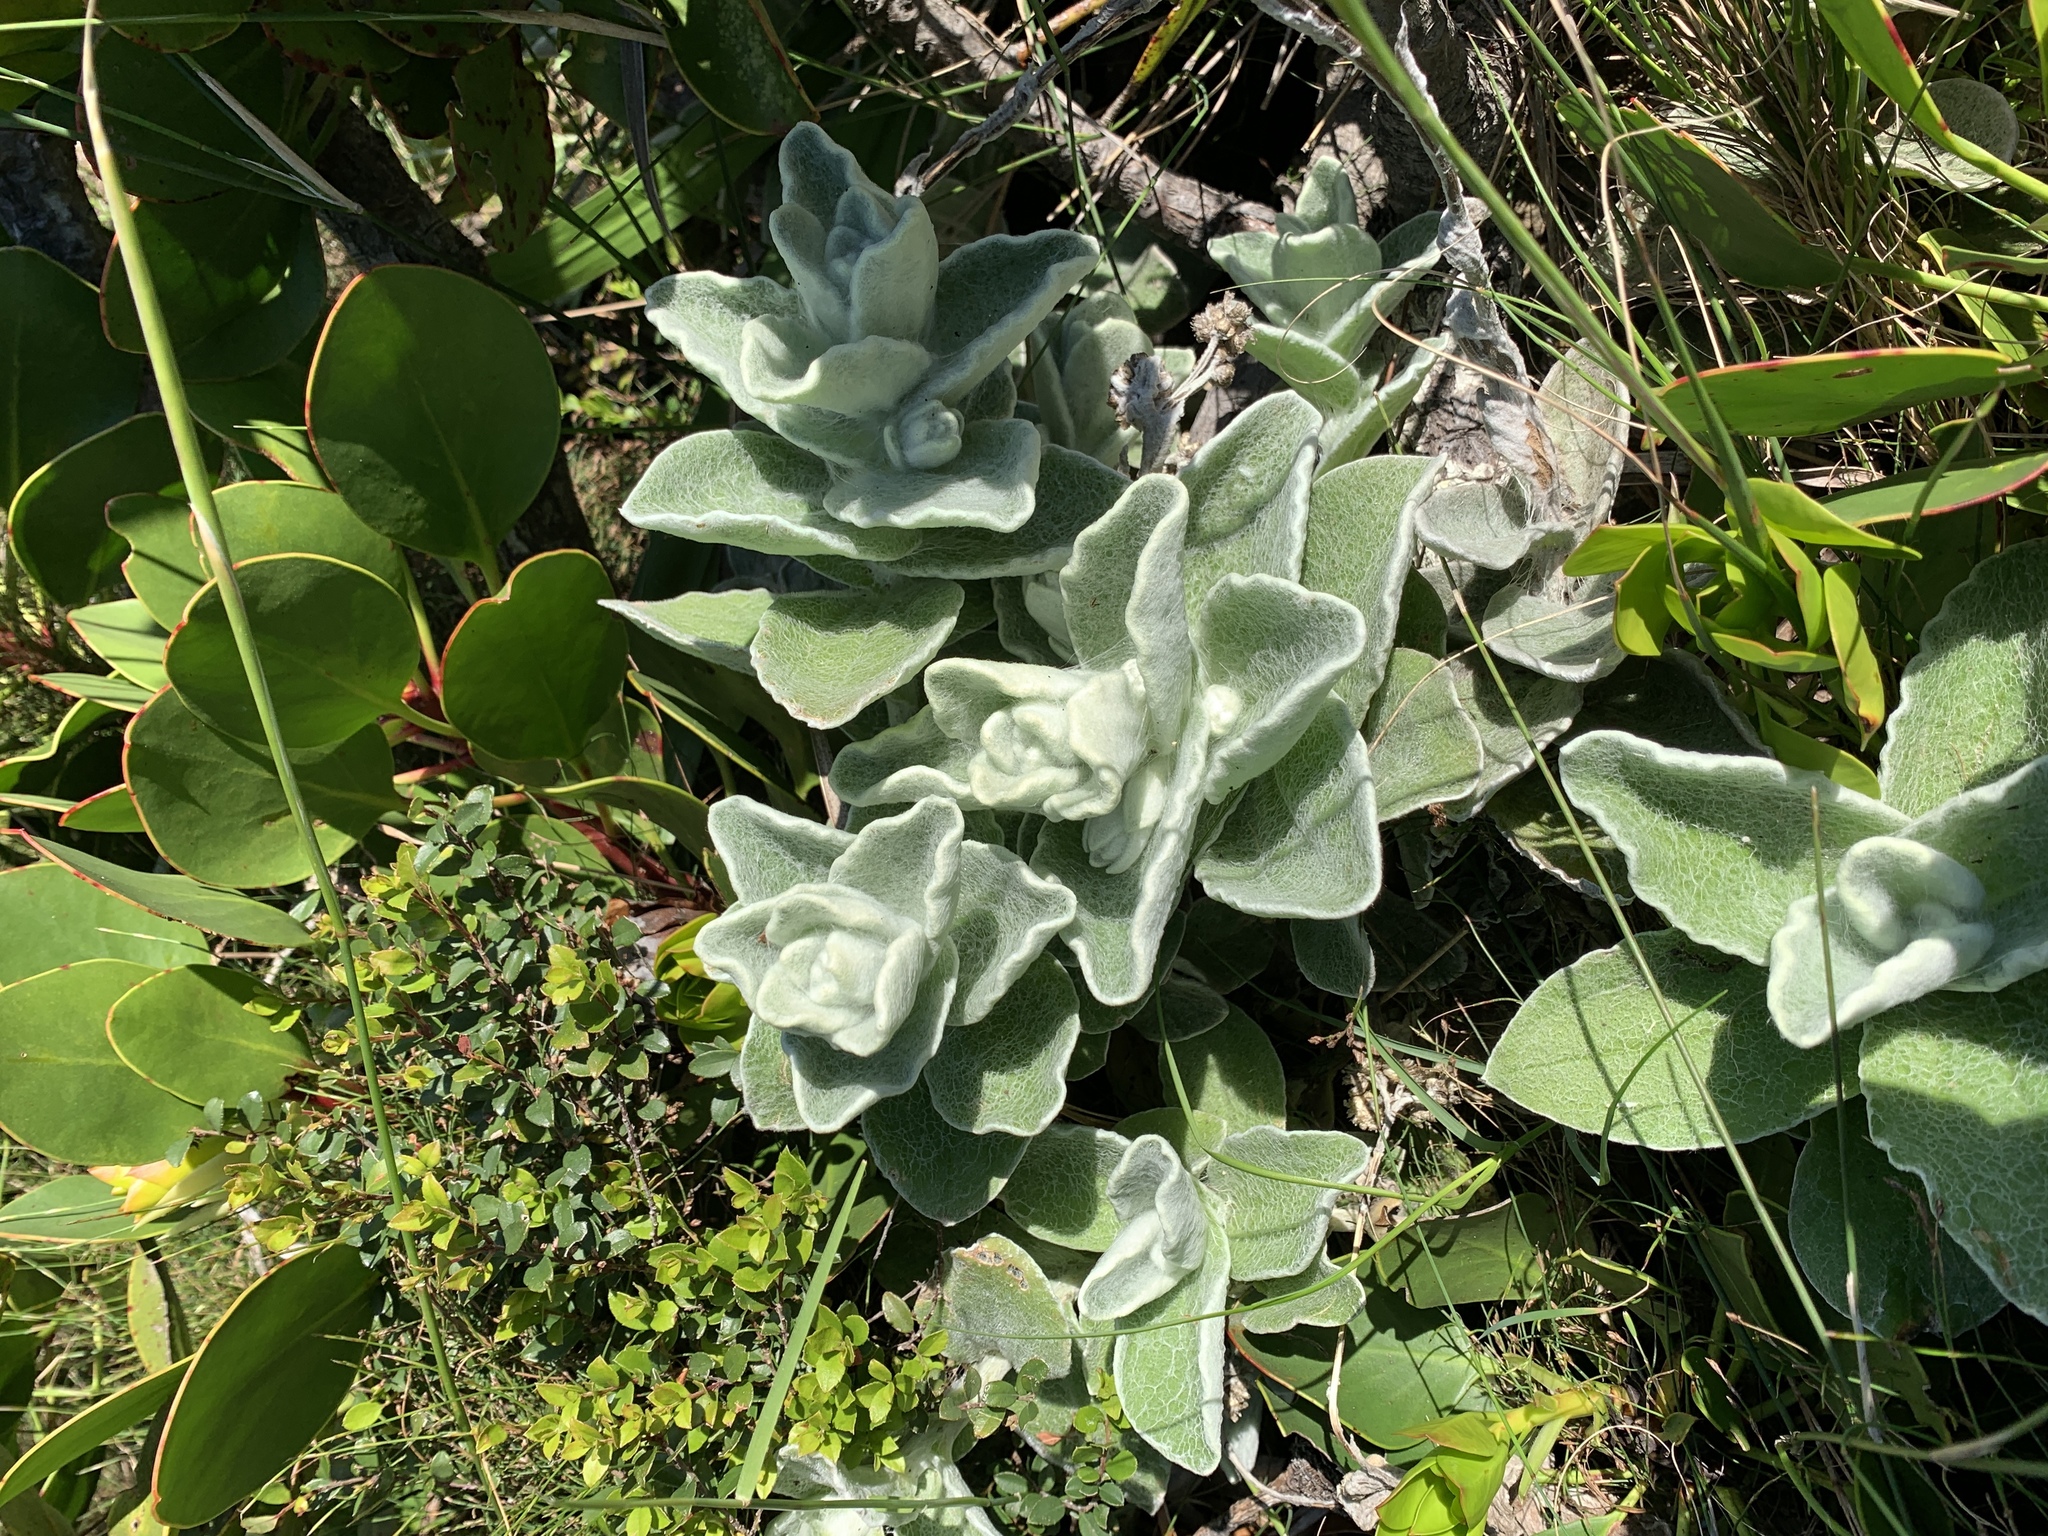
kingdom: Plantae
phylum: Tracheophyta
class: Magnoliopsida
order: Proteales
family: Proteaceae
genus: Protea
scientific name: Protea cynaroides
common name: King protea
